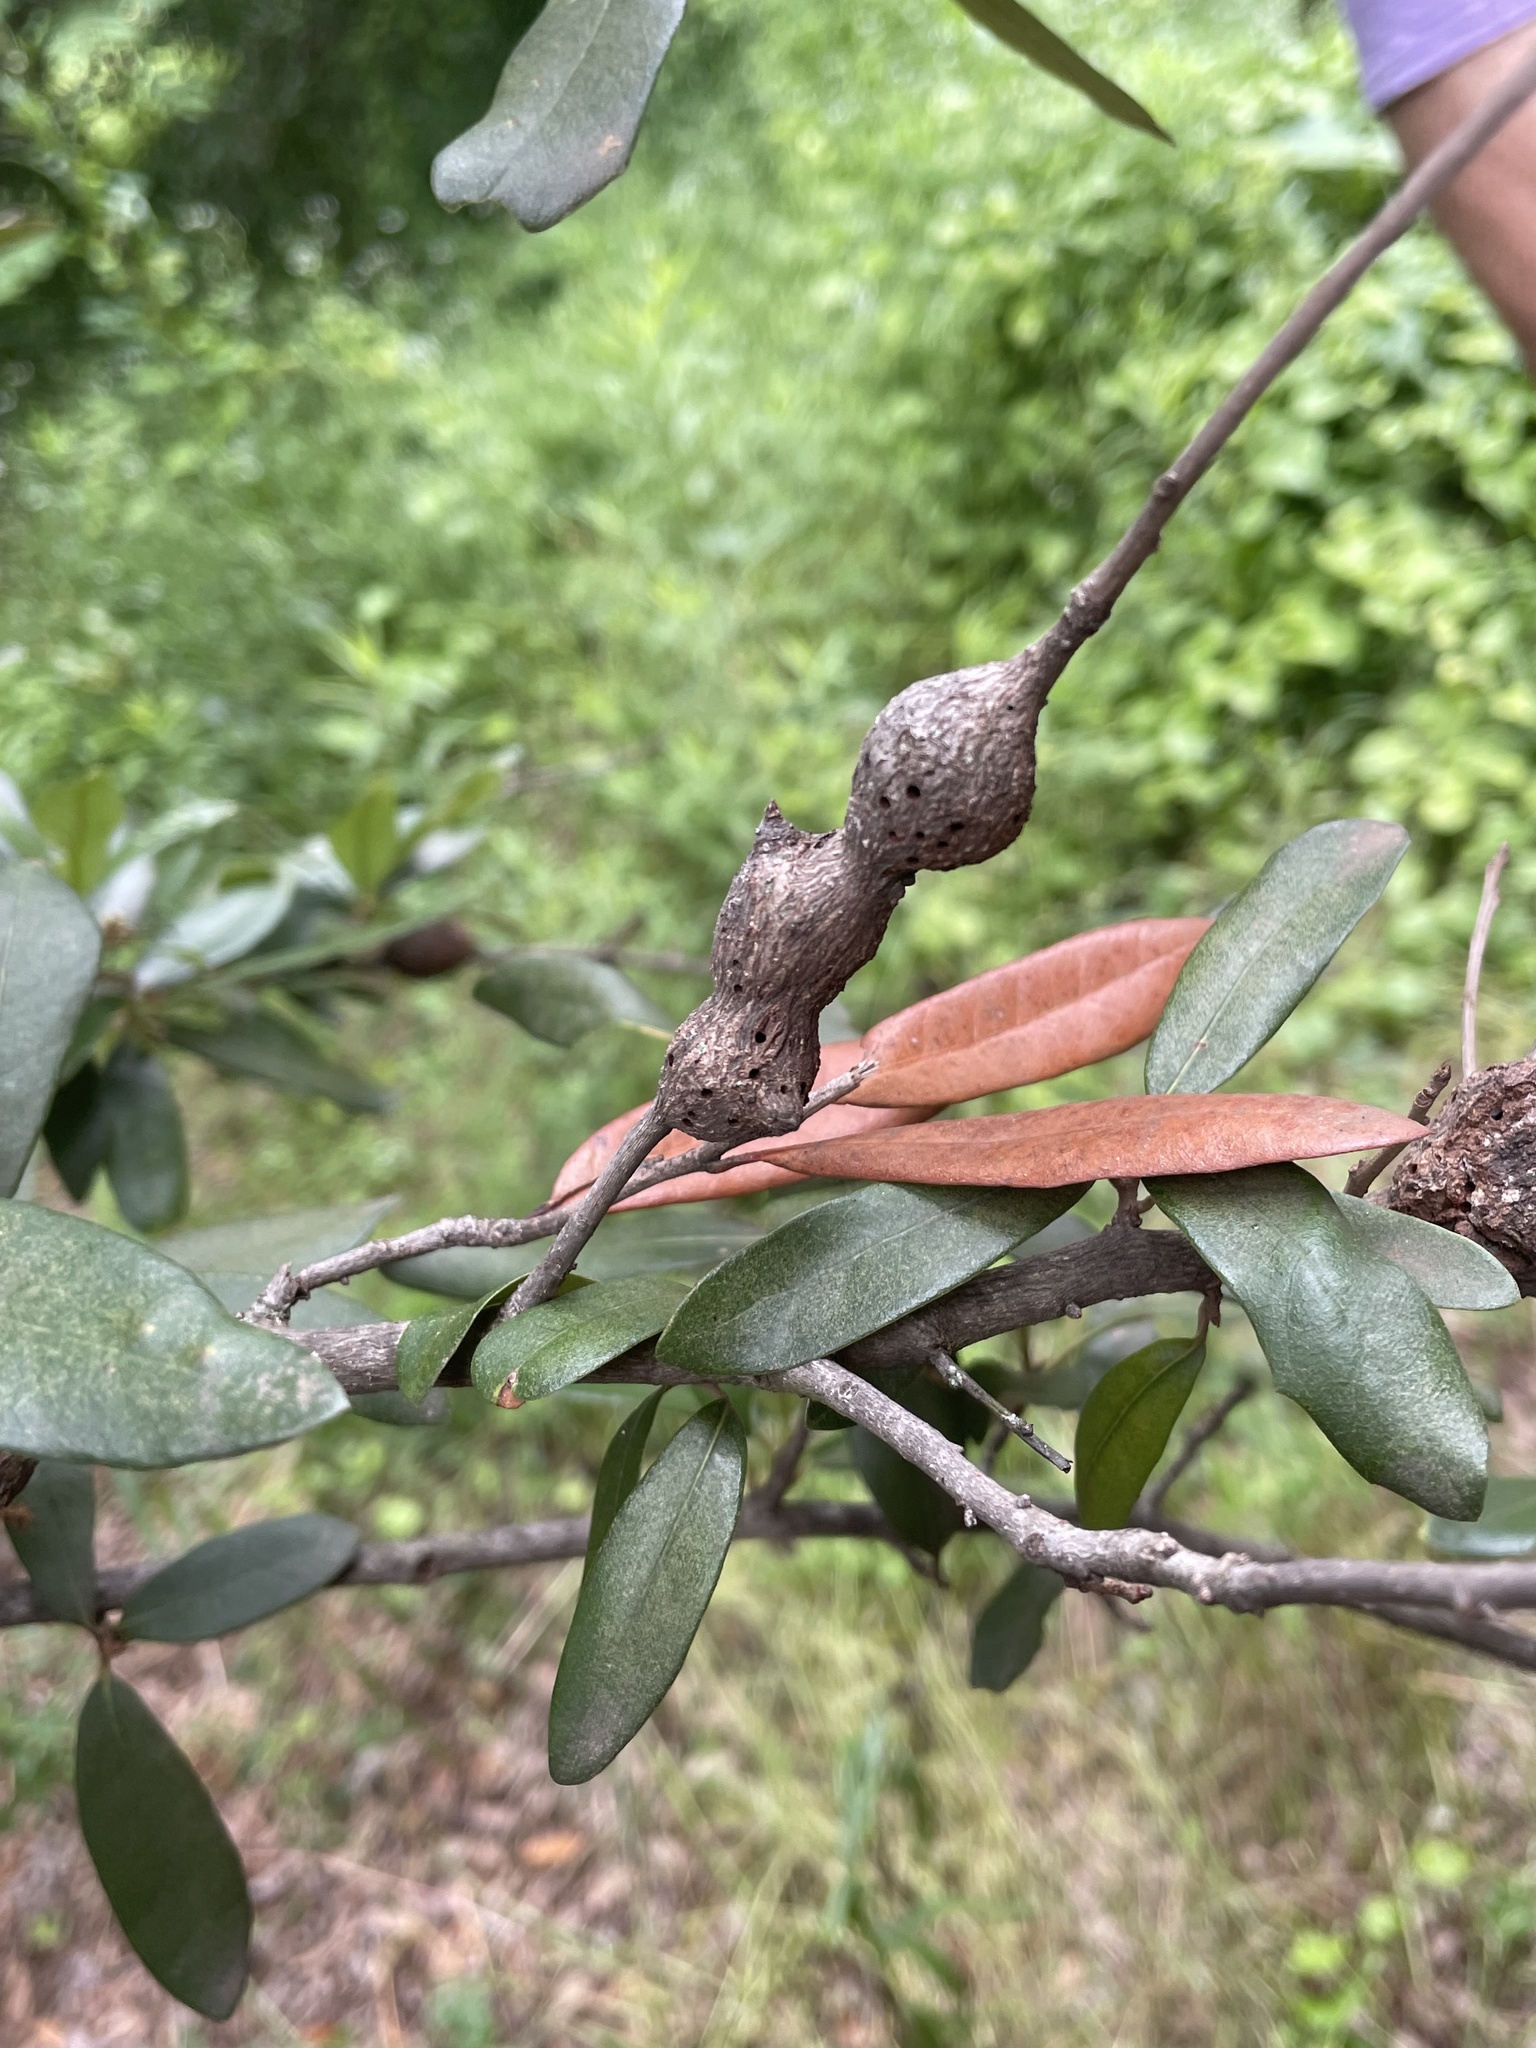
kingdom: Animalia
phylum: Arthropoda
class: Insecta
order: Hymenoptera
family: Cynipidae
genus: Callirhytis
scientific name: Callirhytis
